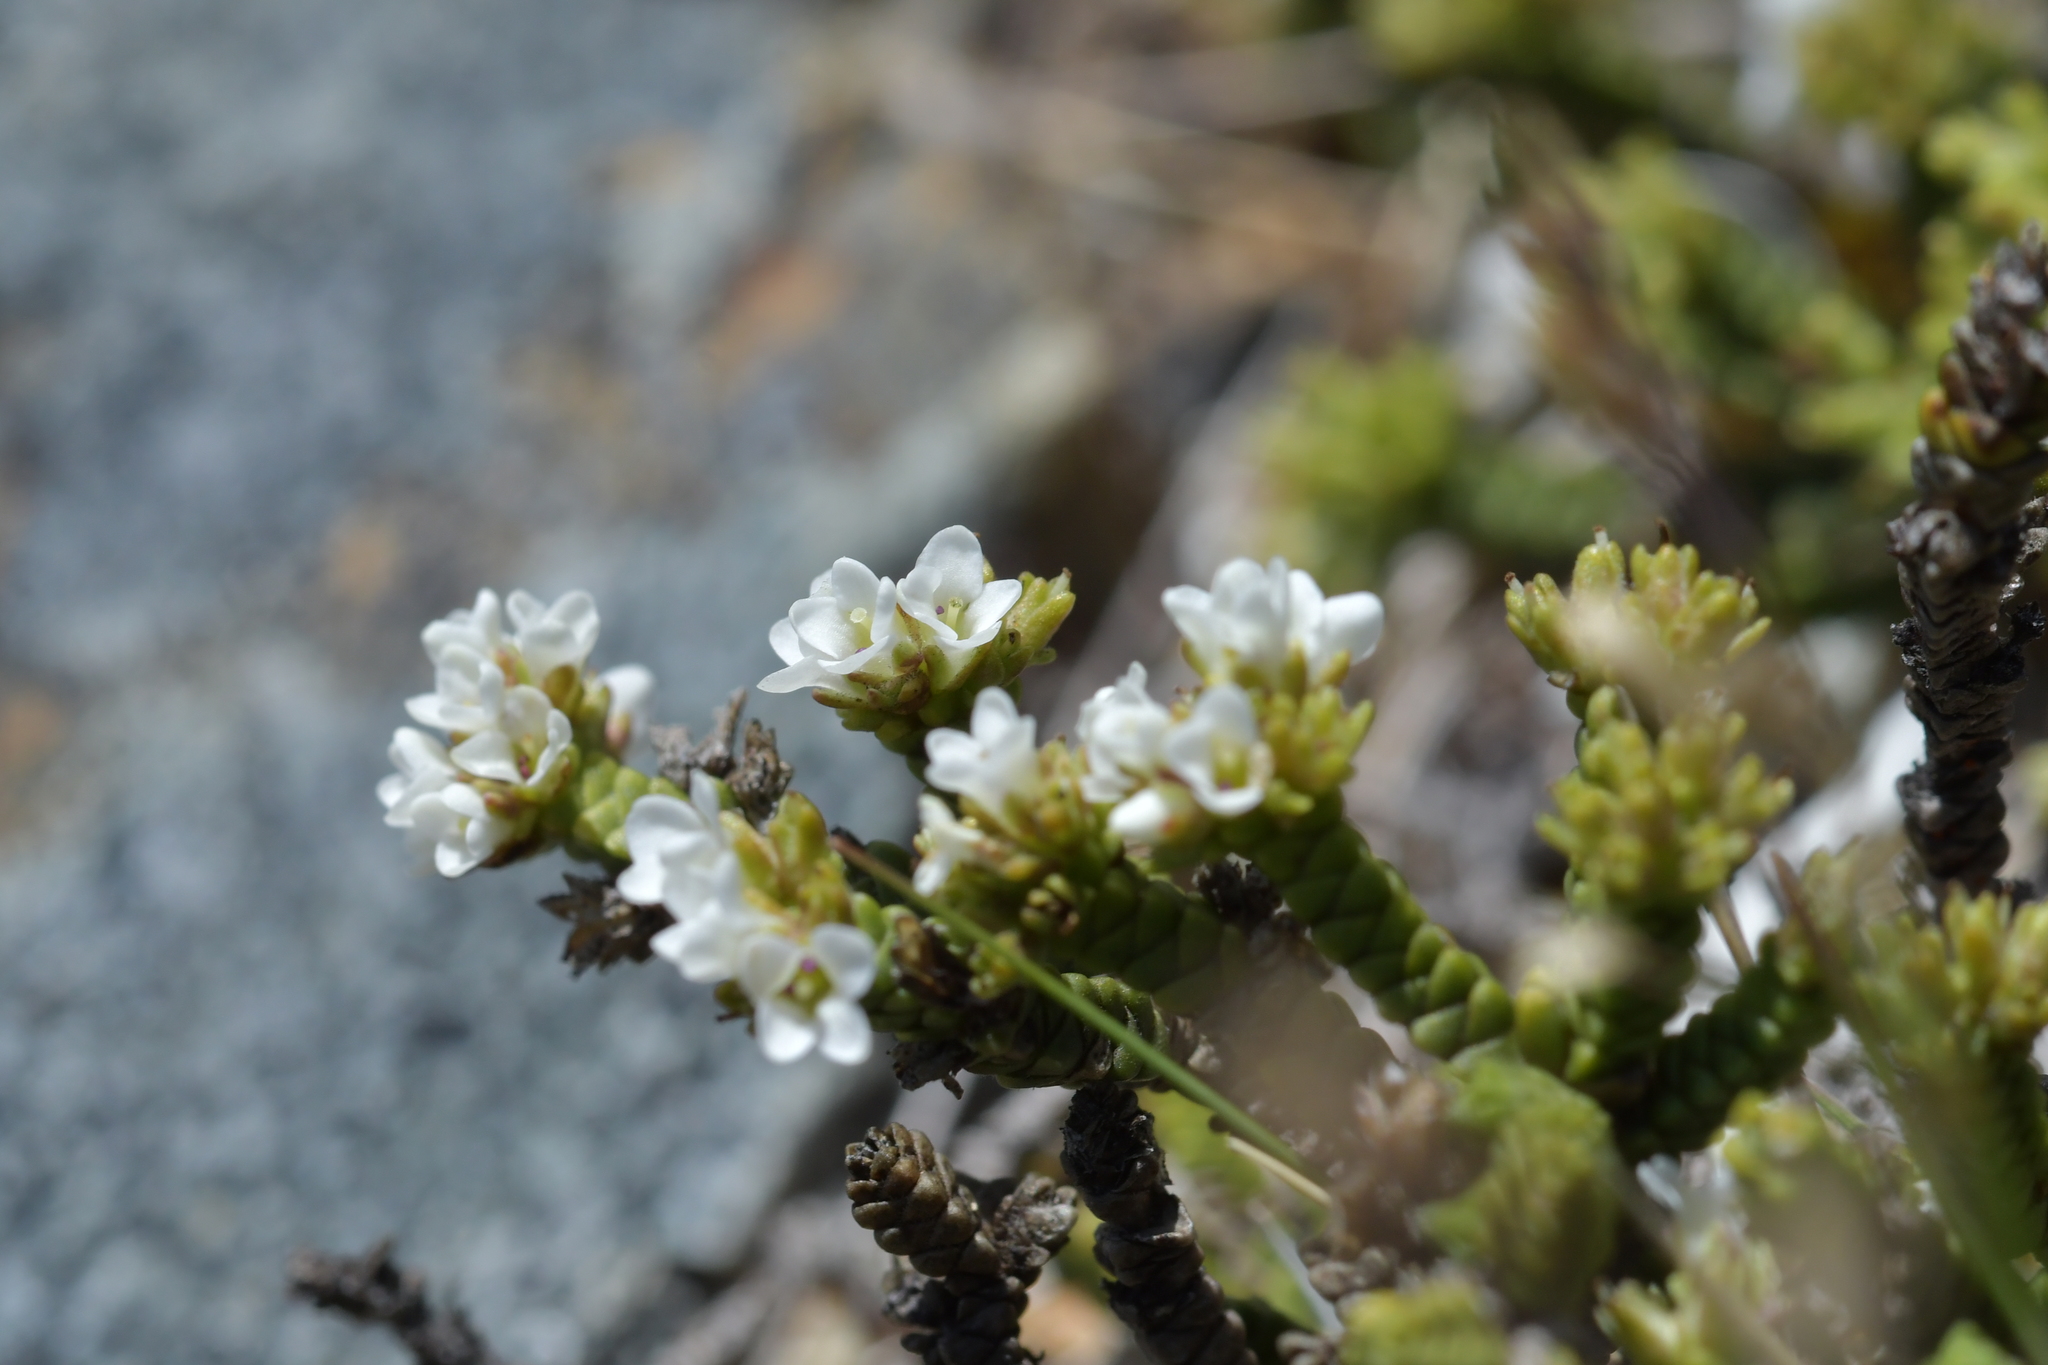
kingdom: Plantae
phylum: Tracheophyta
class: Magnoliopsida
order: Lamiales
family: Plantaginaceae
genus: Veronica
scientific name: Veronica tumida
